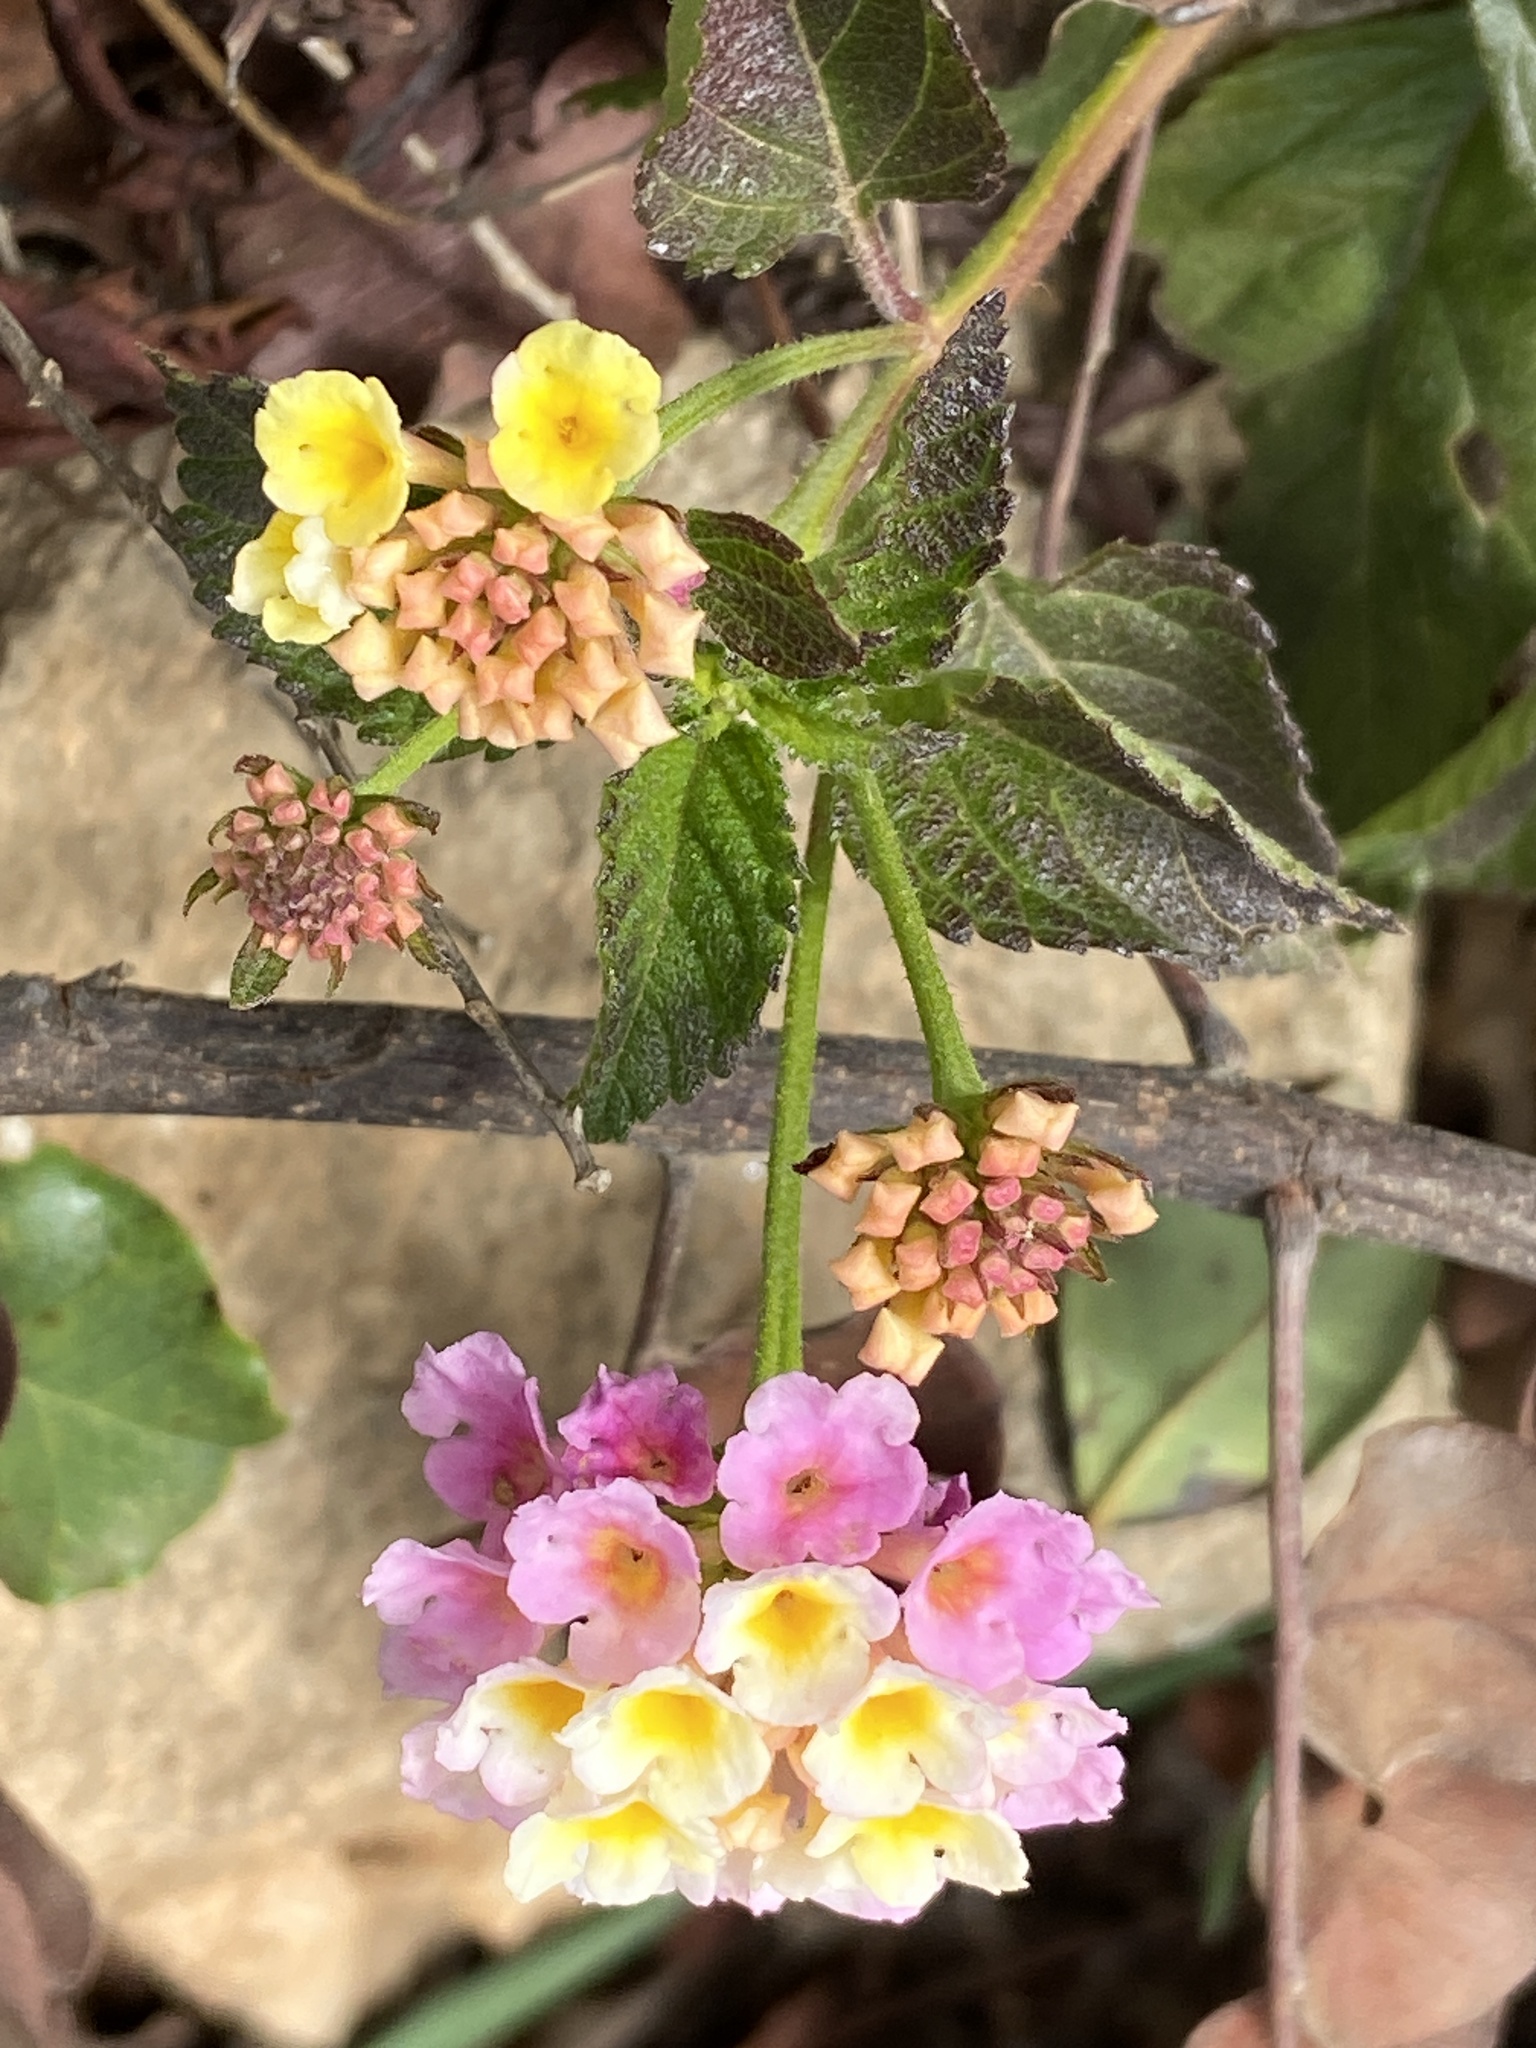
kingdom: Plantae
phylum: Tracheophyta
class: Magnoliopsida
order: Lamiales
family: Verbenaceae
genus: Lantana
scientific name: Lantana camara
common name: Lantana
